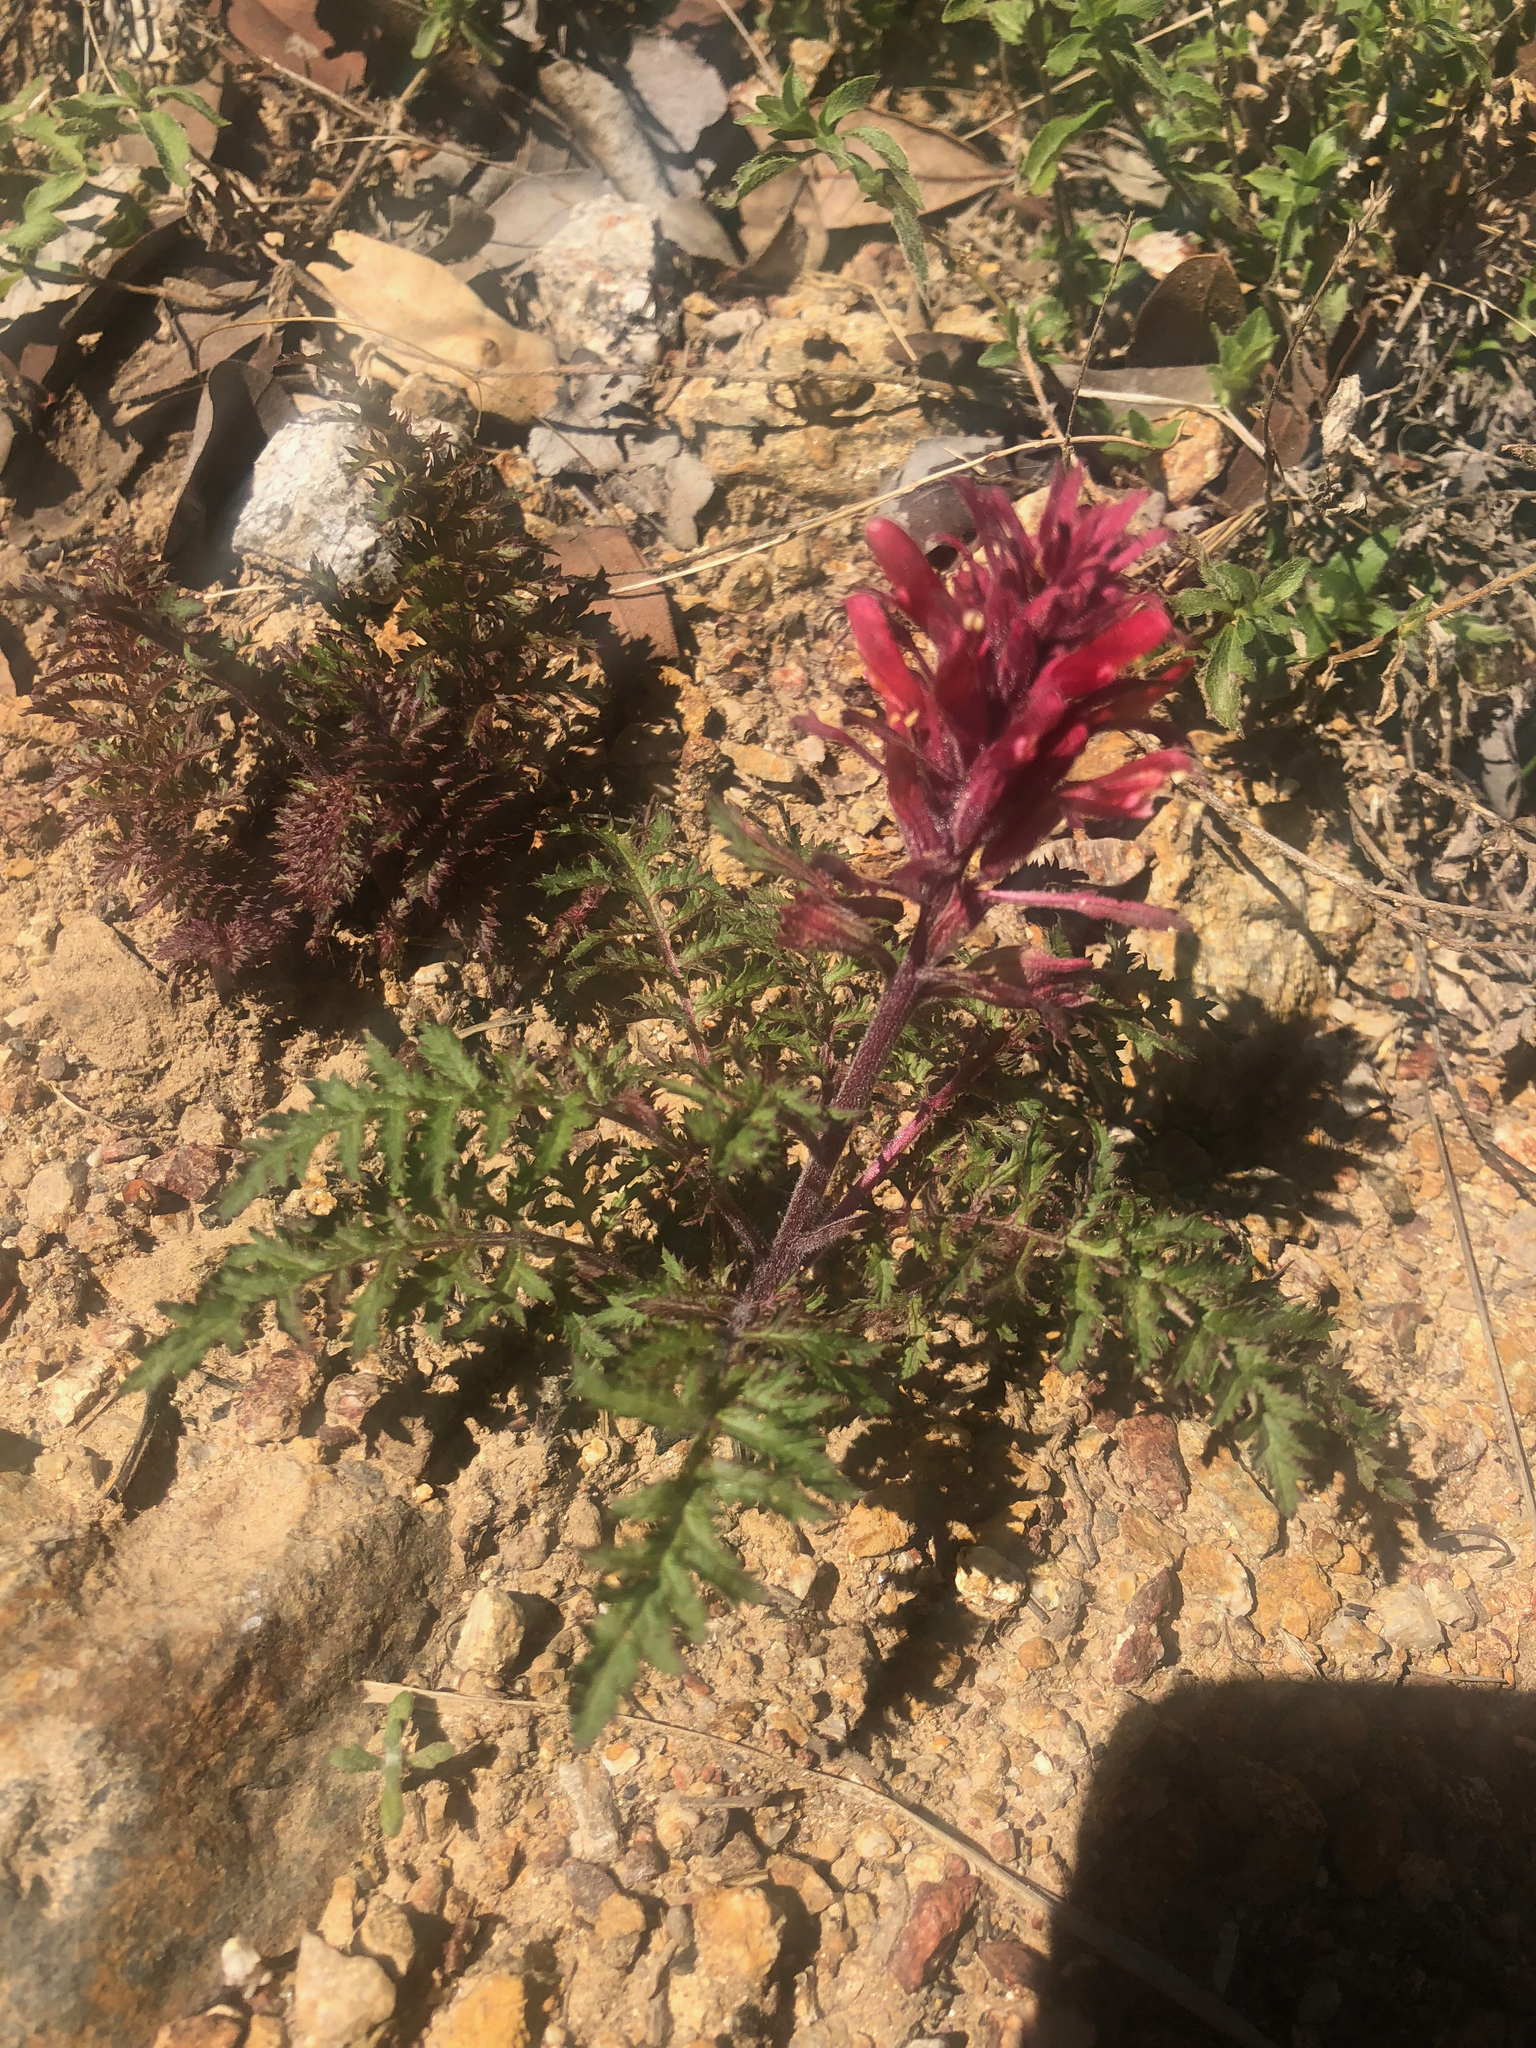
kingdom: Plantae
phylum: Tracheophyta
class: Magnoliopsida
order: Lamiales
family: Orobanchaceae
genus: Pedicularis
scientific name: Pedicularis densiflora
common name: Indian warrior
